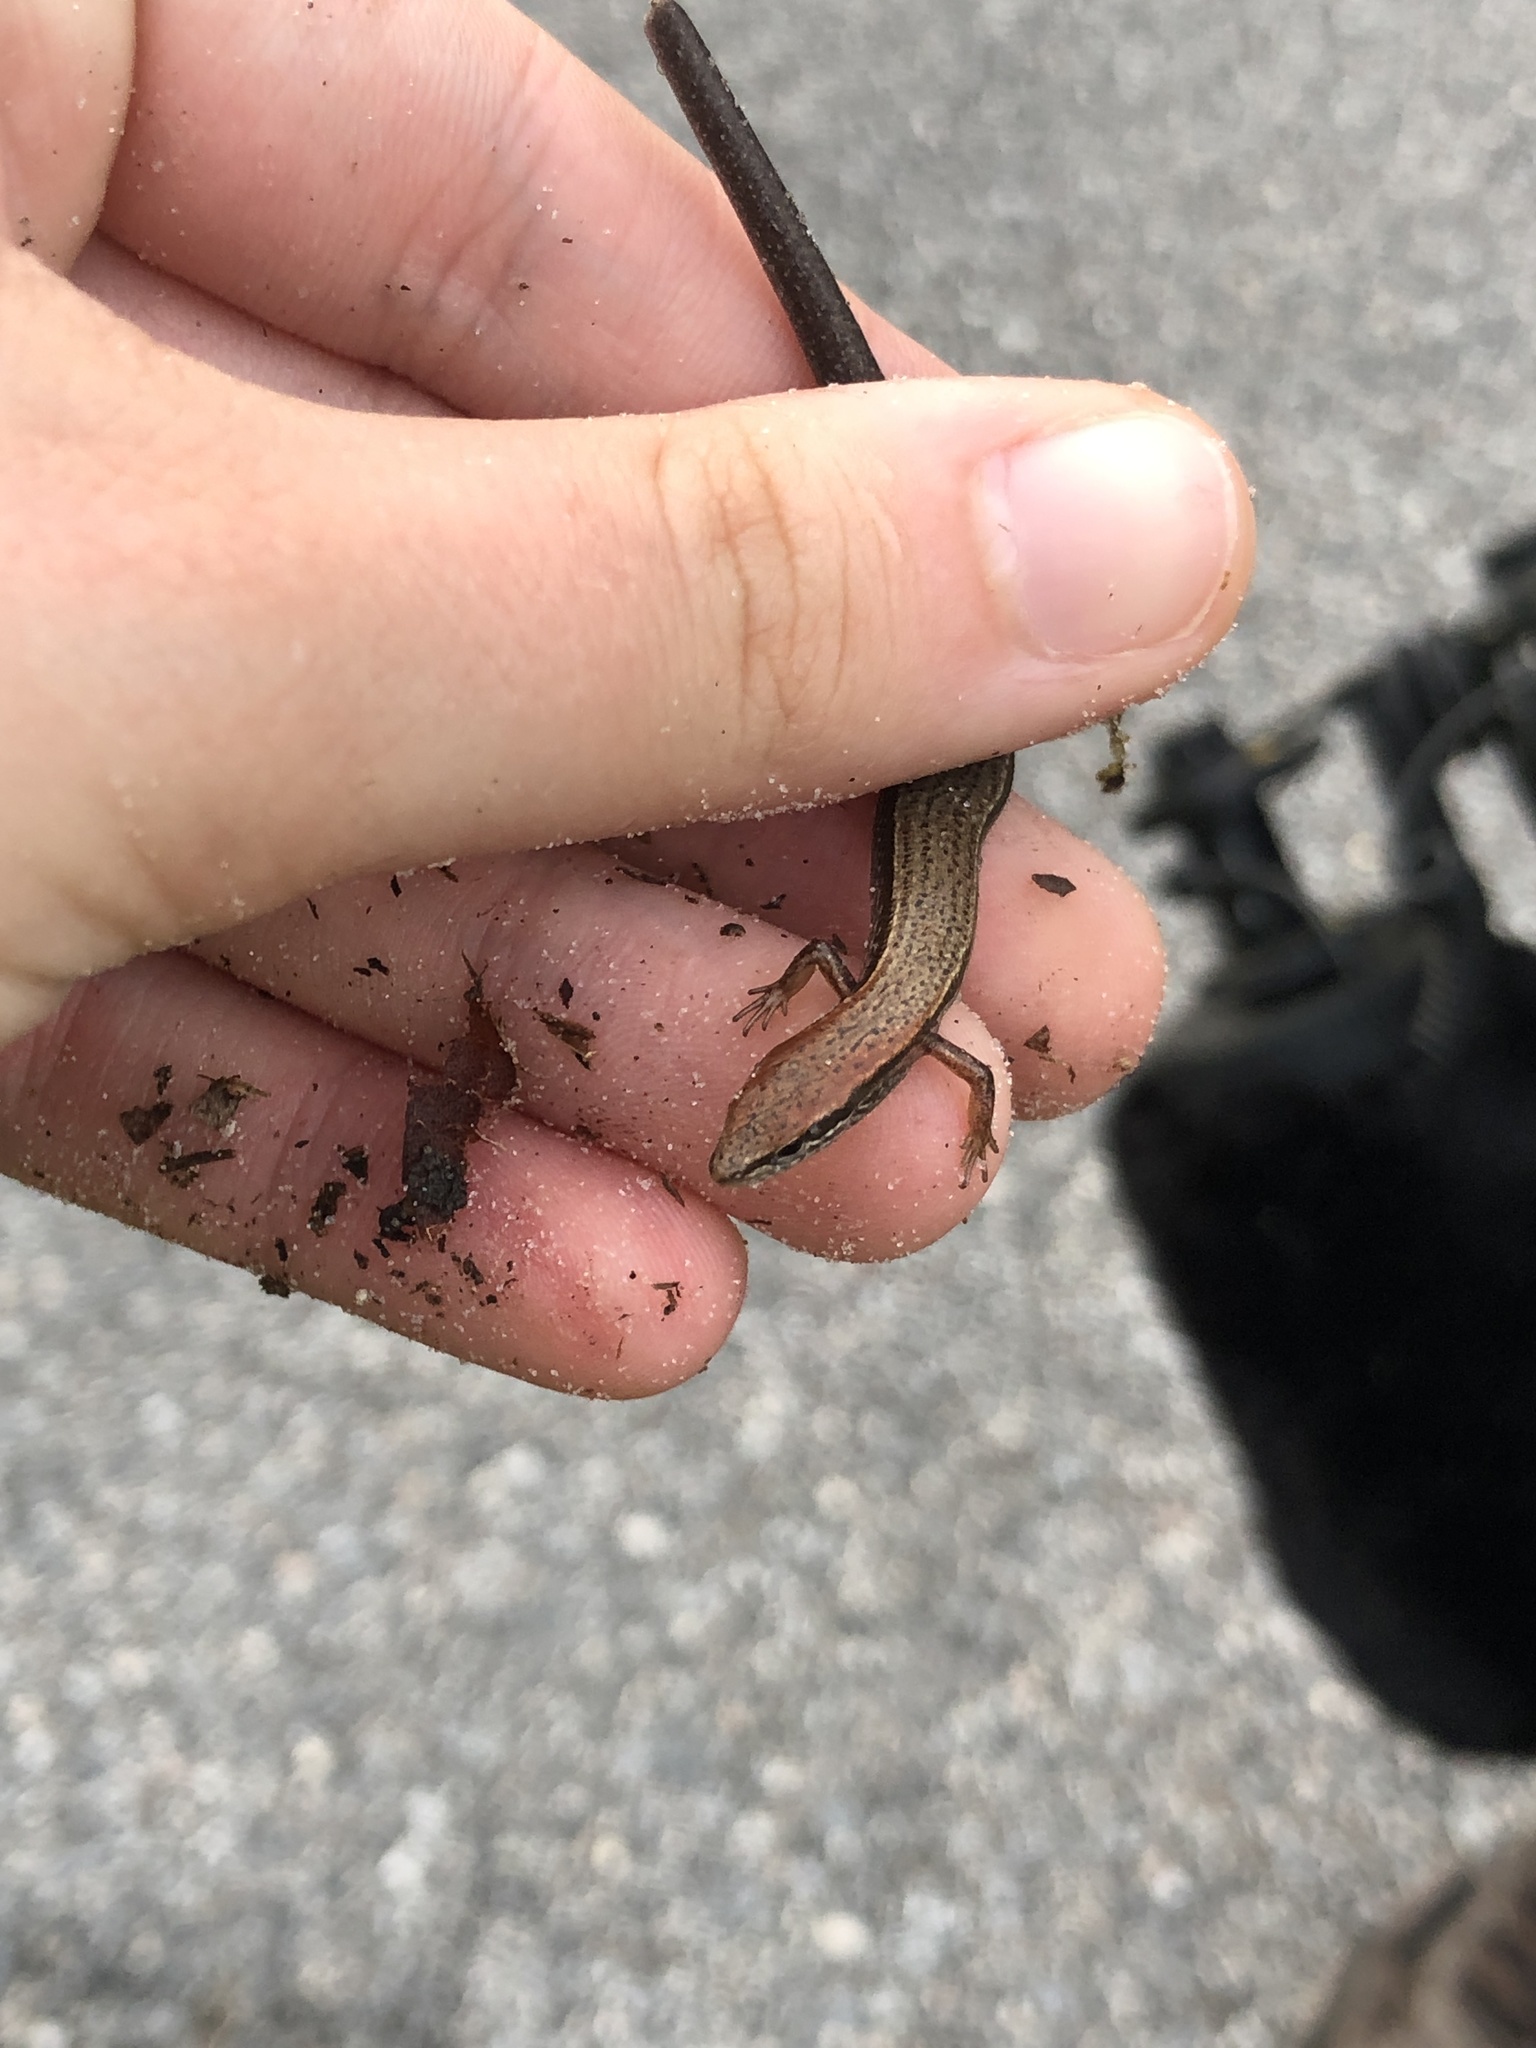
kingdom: Animalia
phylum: Chordata
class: Squamata
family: Scincidae
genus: Scincella
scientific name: Scincella lateralis
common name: Ground skink
